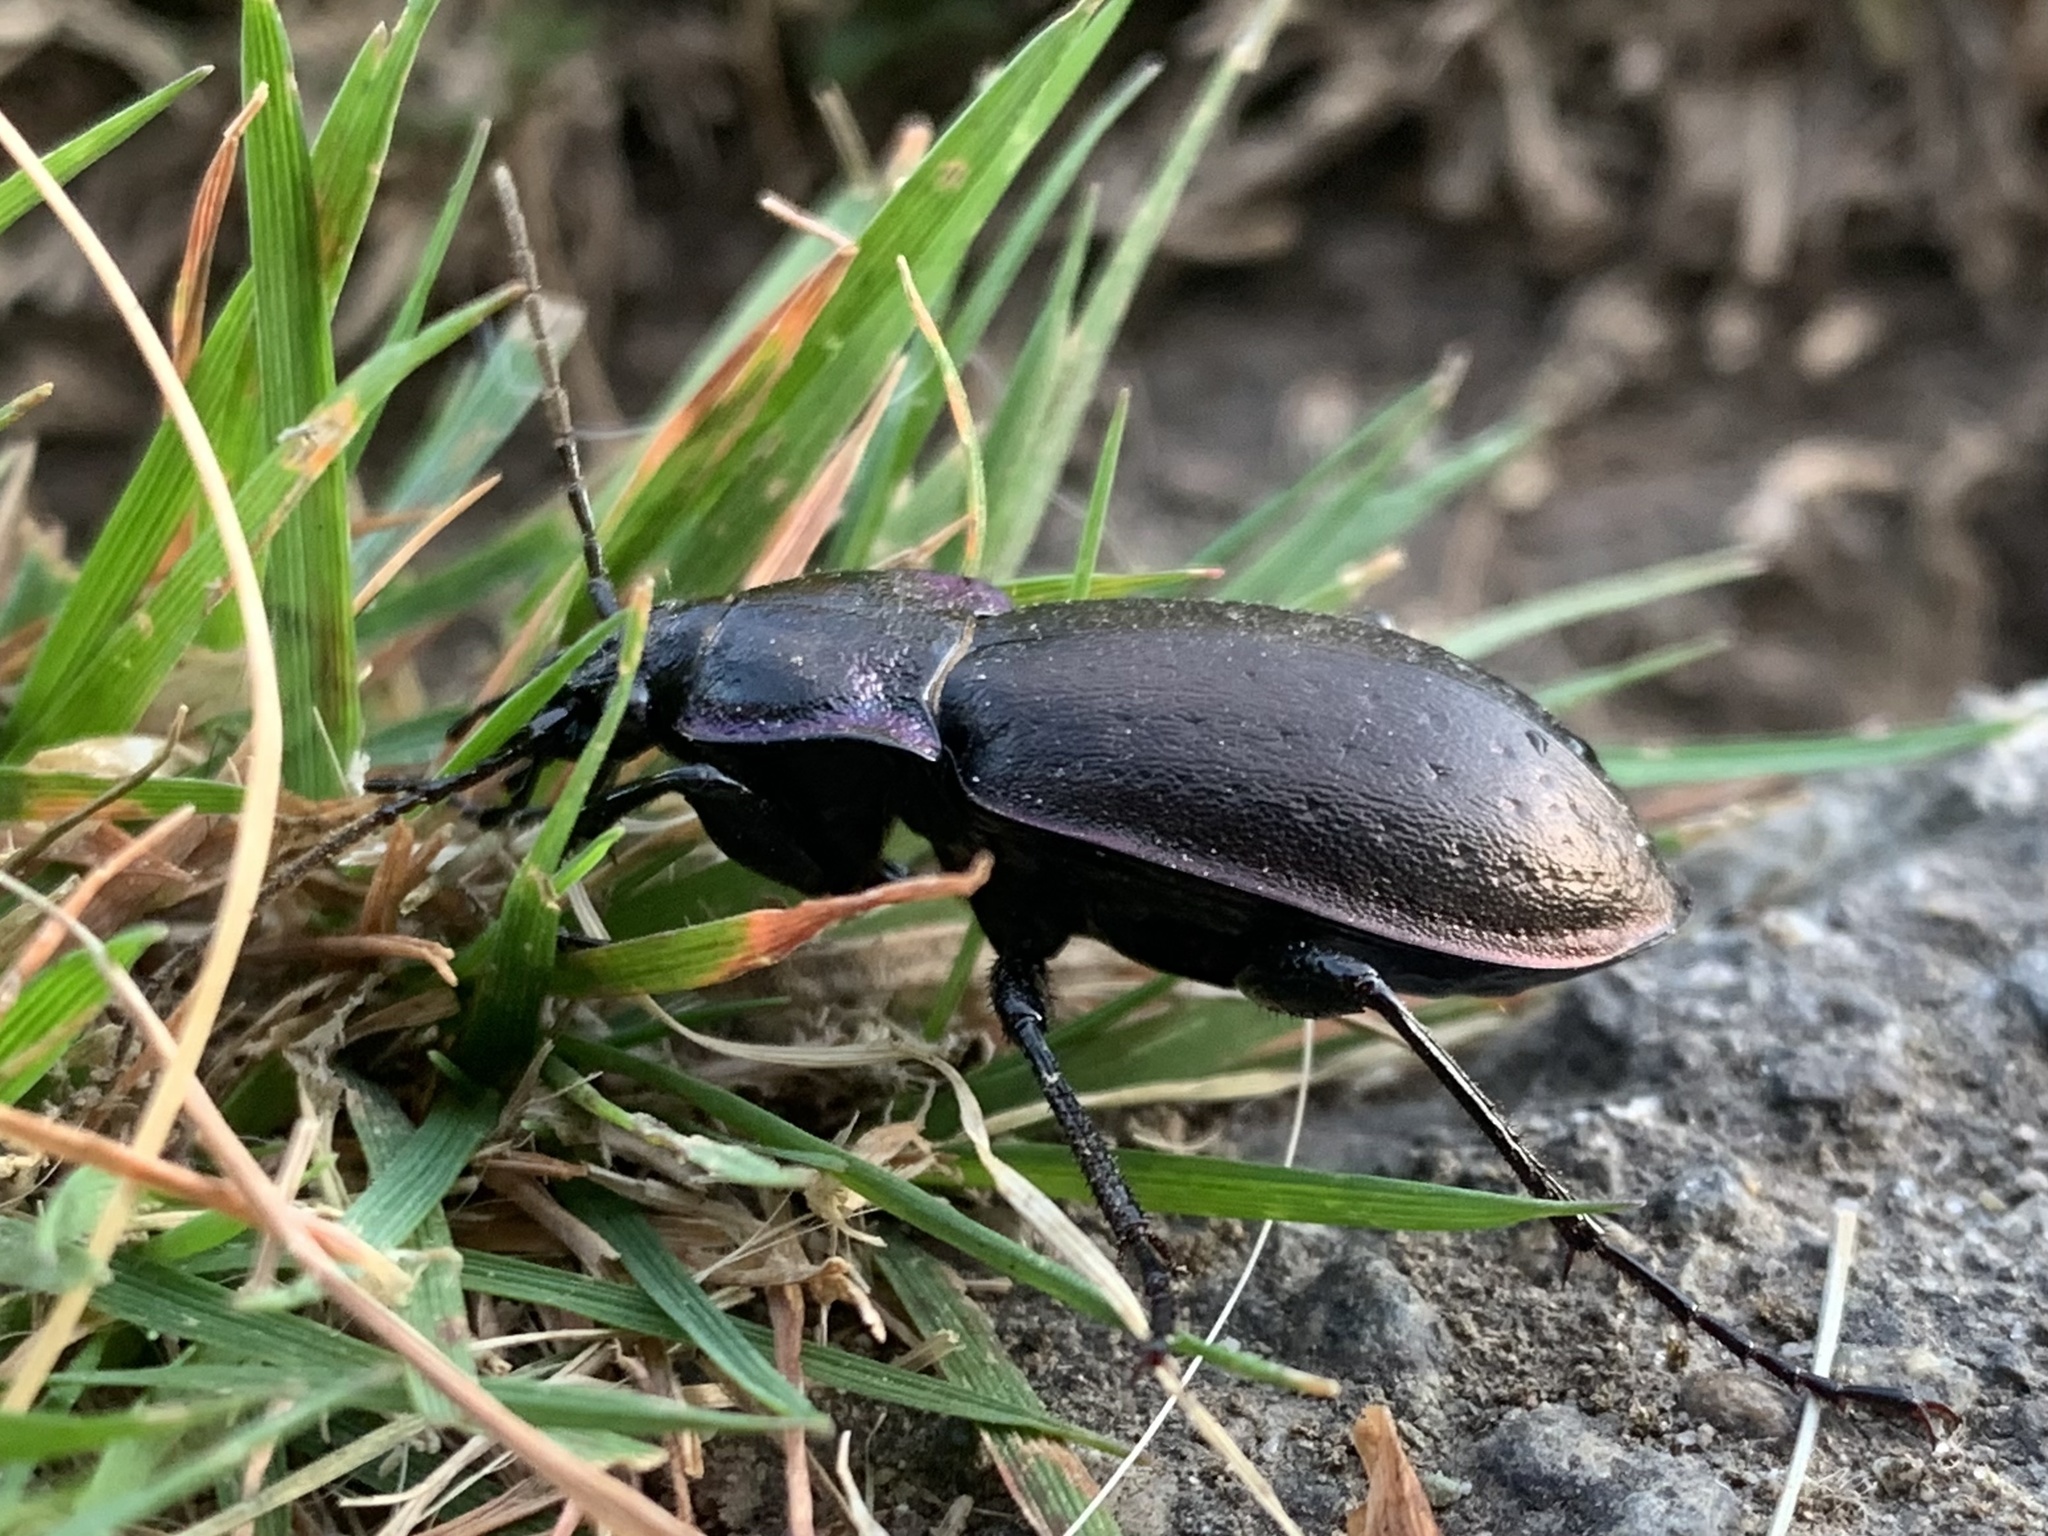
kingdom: Animalia
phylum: Arthropoda
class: Insecta
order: Coleoptera
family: Carabidae
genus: Carabus
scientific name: Carabus nemoralis
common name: European ground beetle
